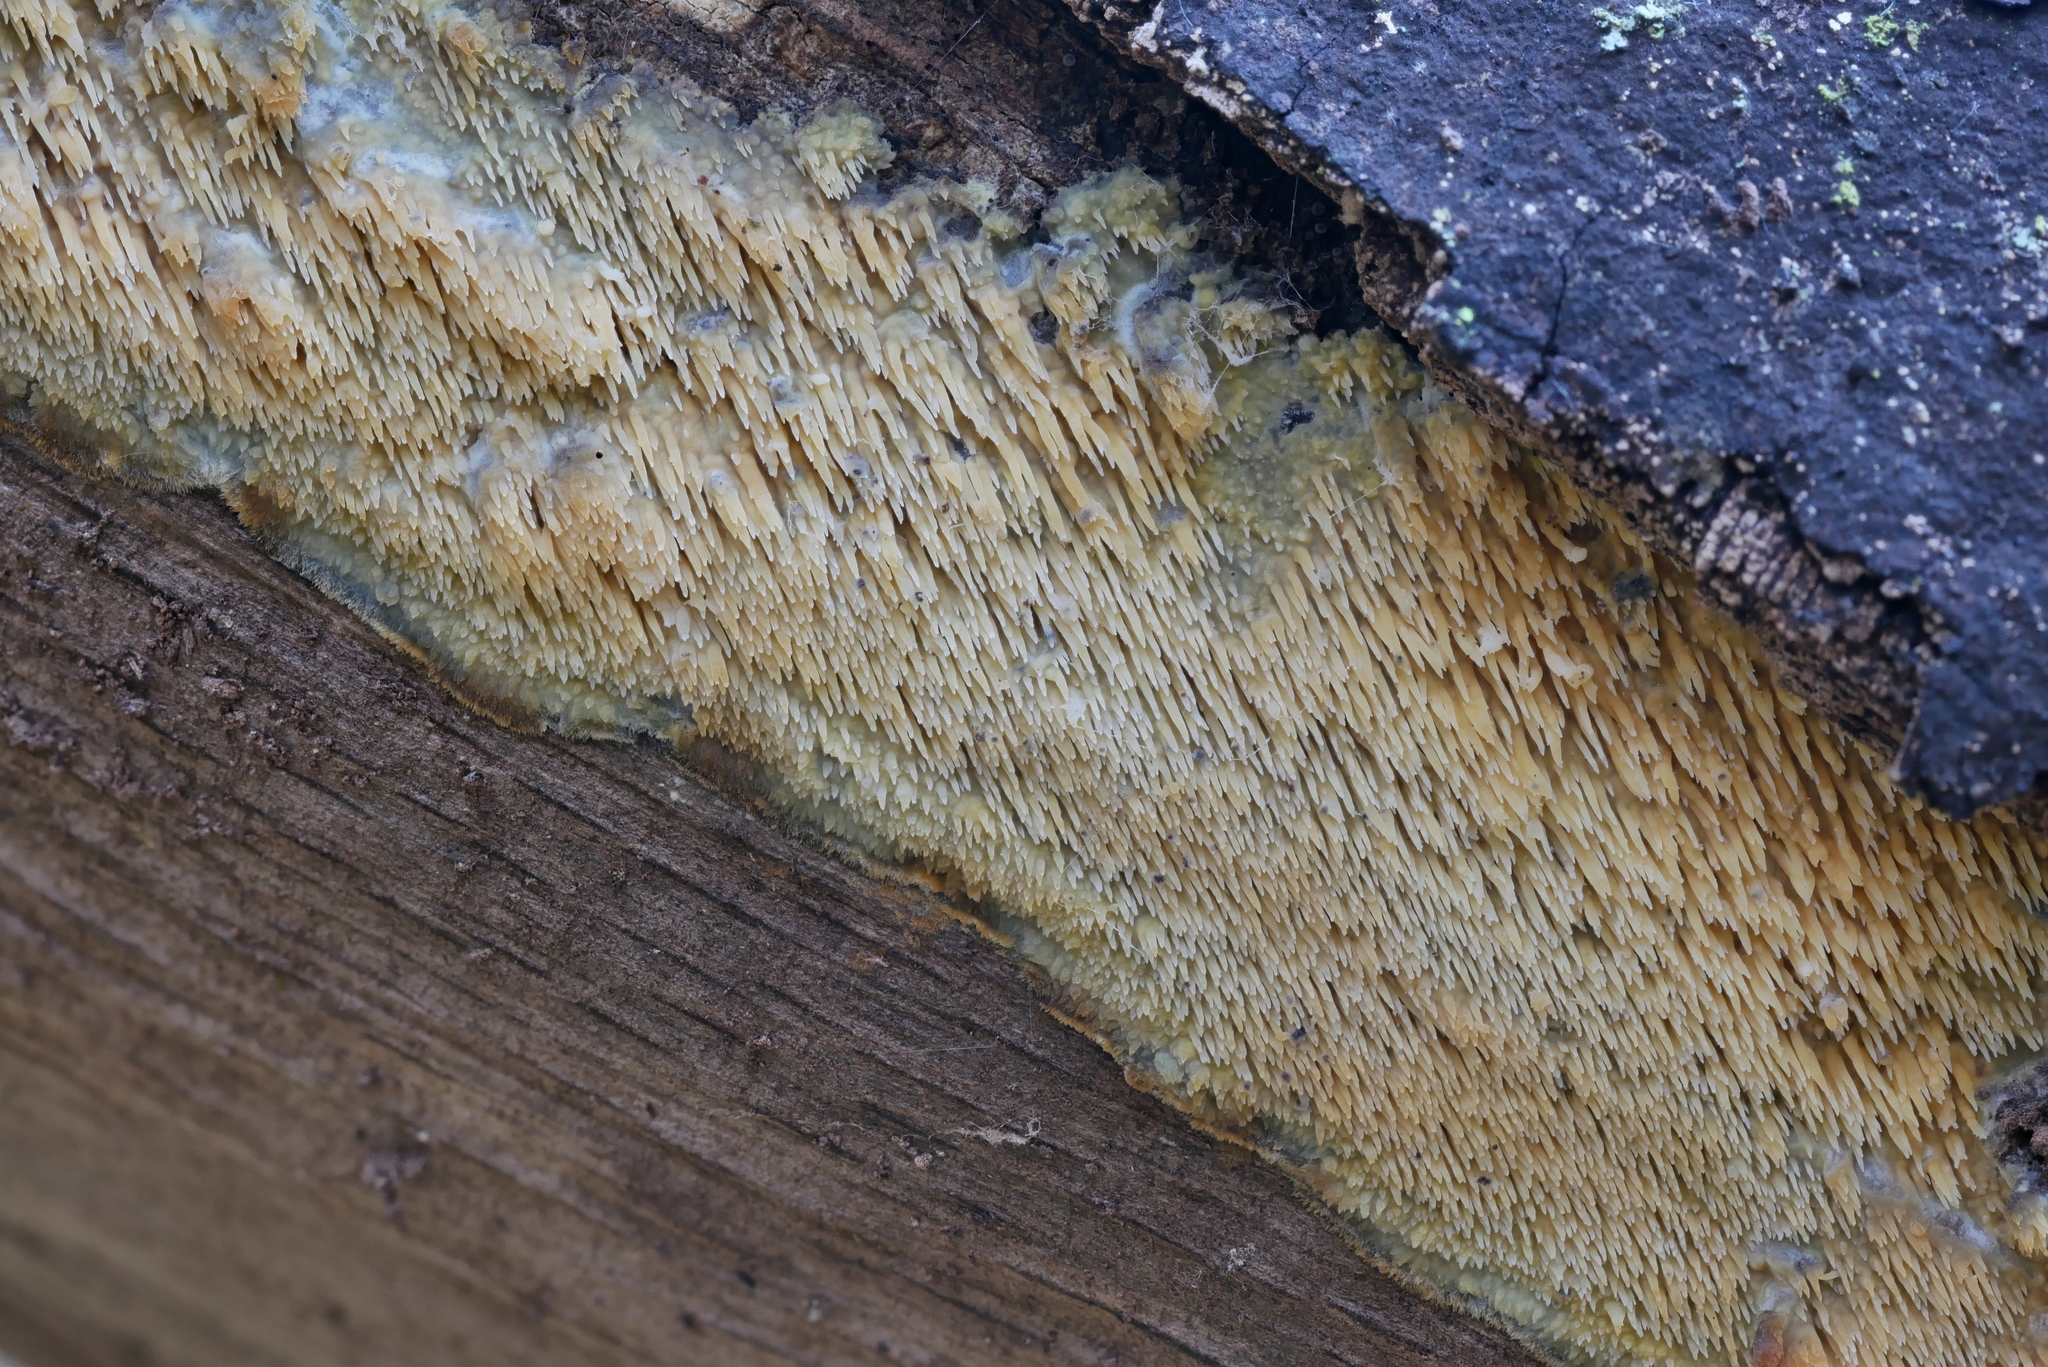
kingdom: Fungi
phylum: Basidiomycota
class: Agaricomycetes
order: Polyporales
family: Meruliaceae
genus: Mycoacia
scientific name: Mycoacia uda
